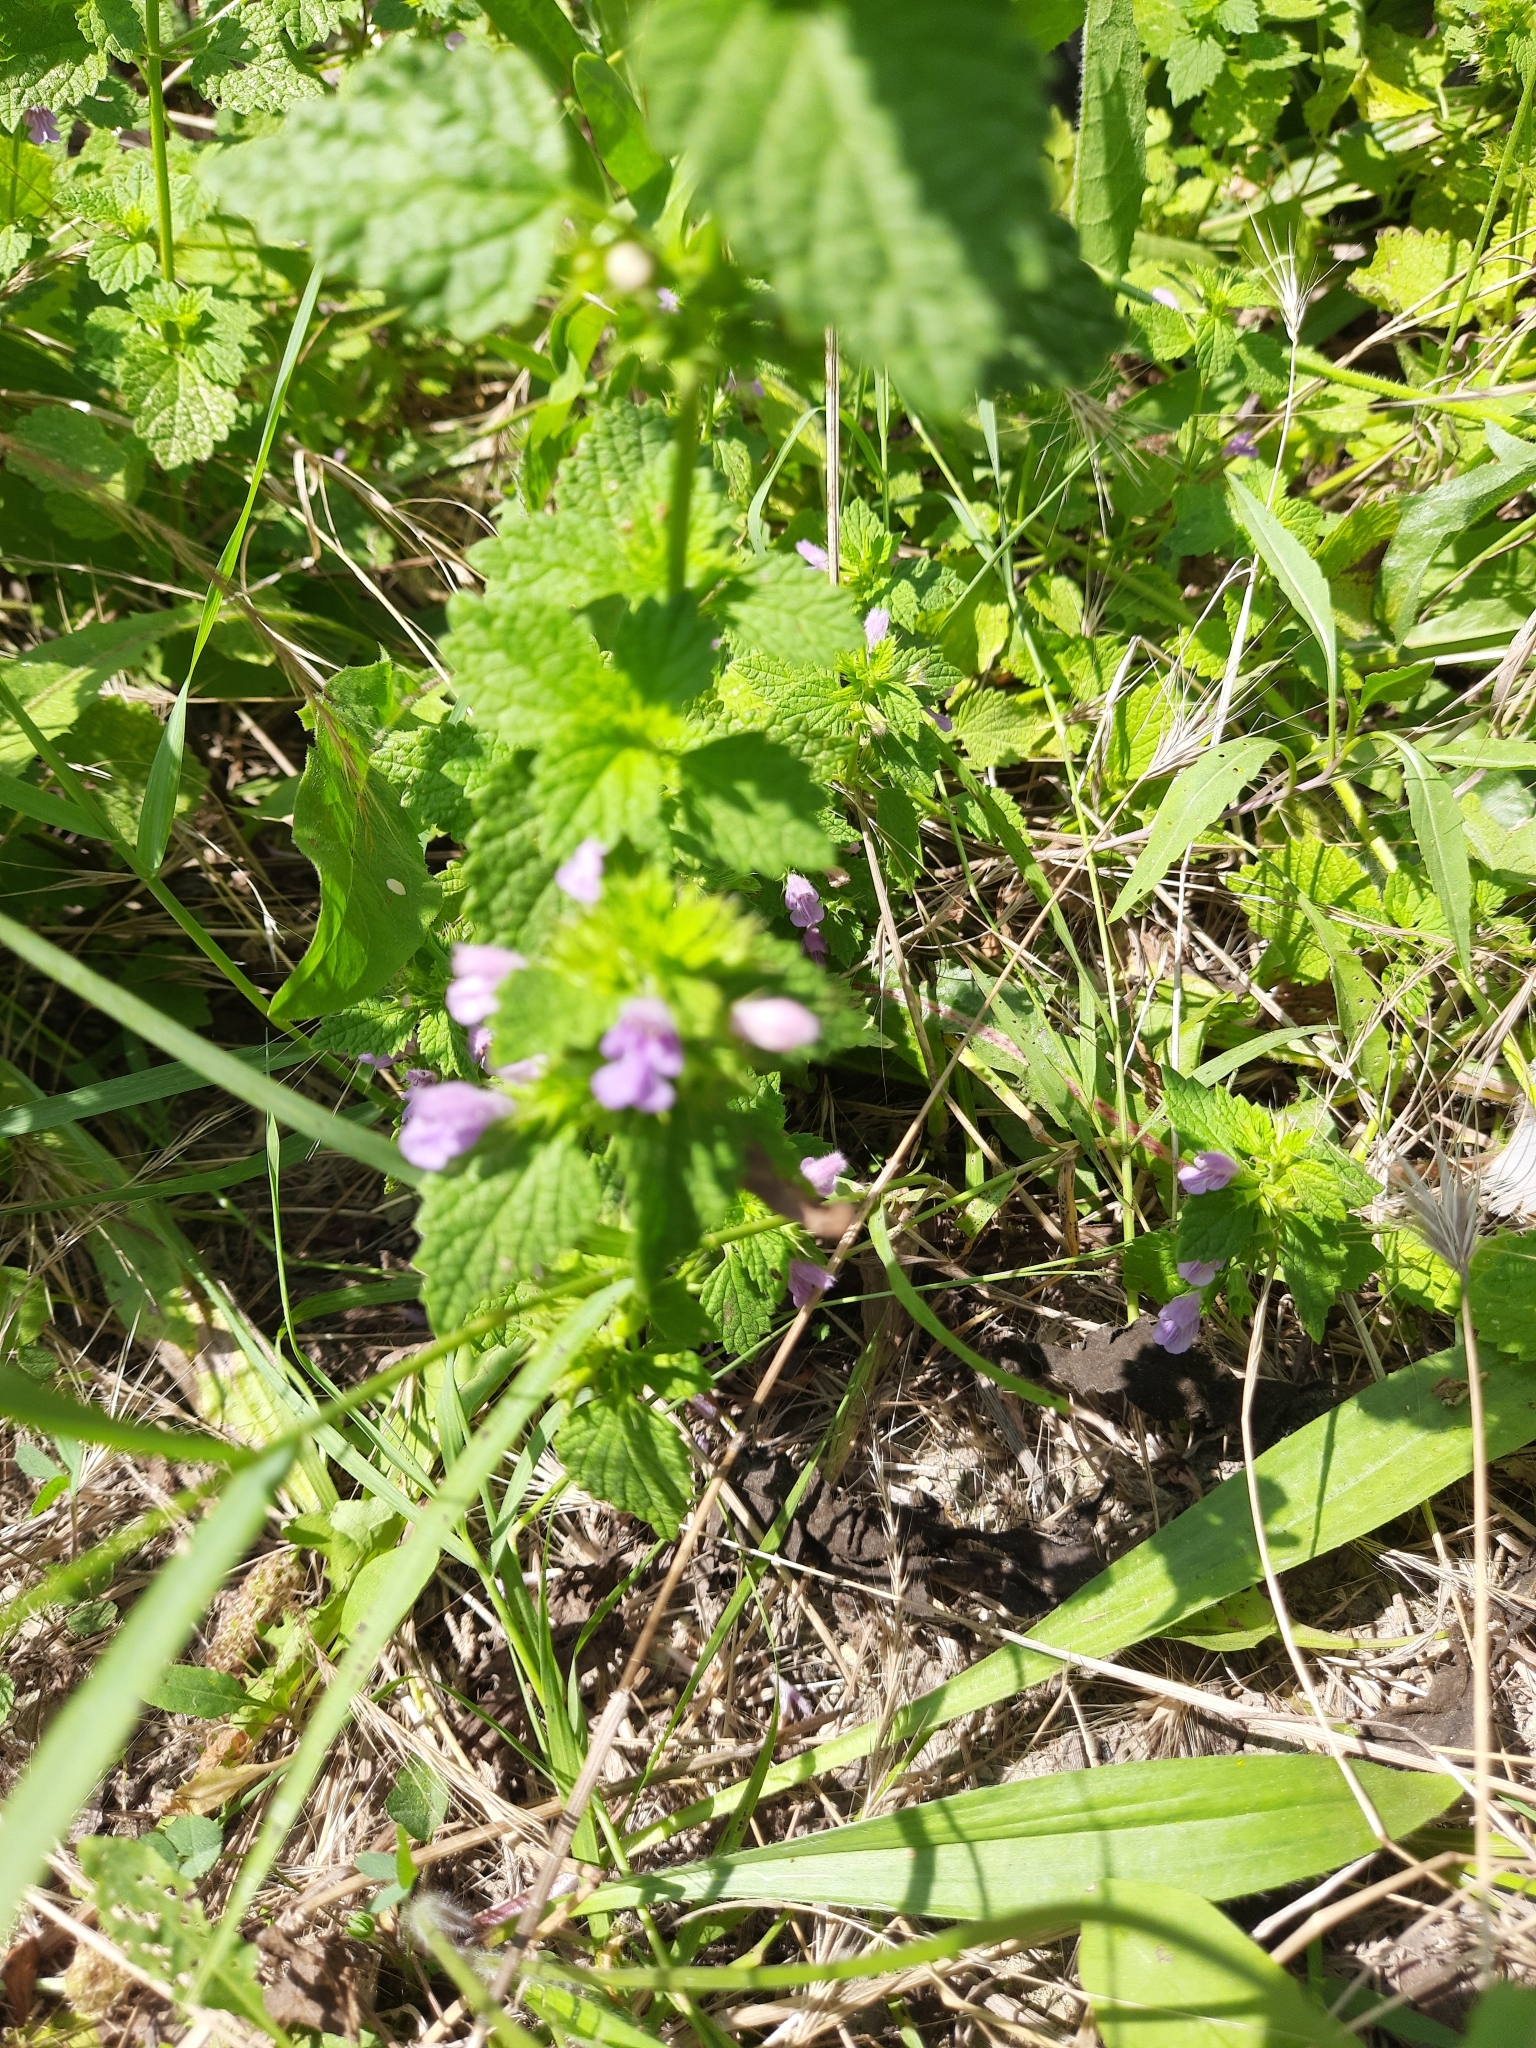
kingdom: Plantae
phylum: Tracheophyta
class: Magnoliopsida
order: Lamiales
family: Lamiaceae
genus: Ballota
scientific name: Ballota nigra
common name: Black horehound
